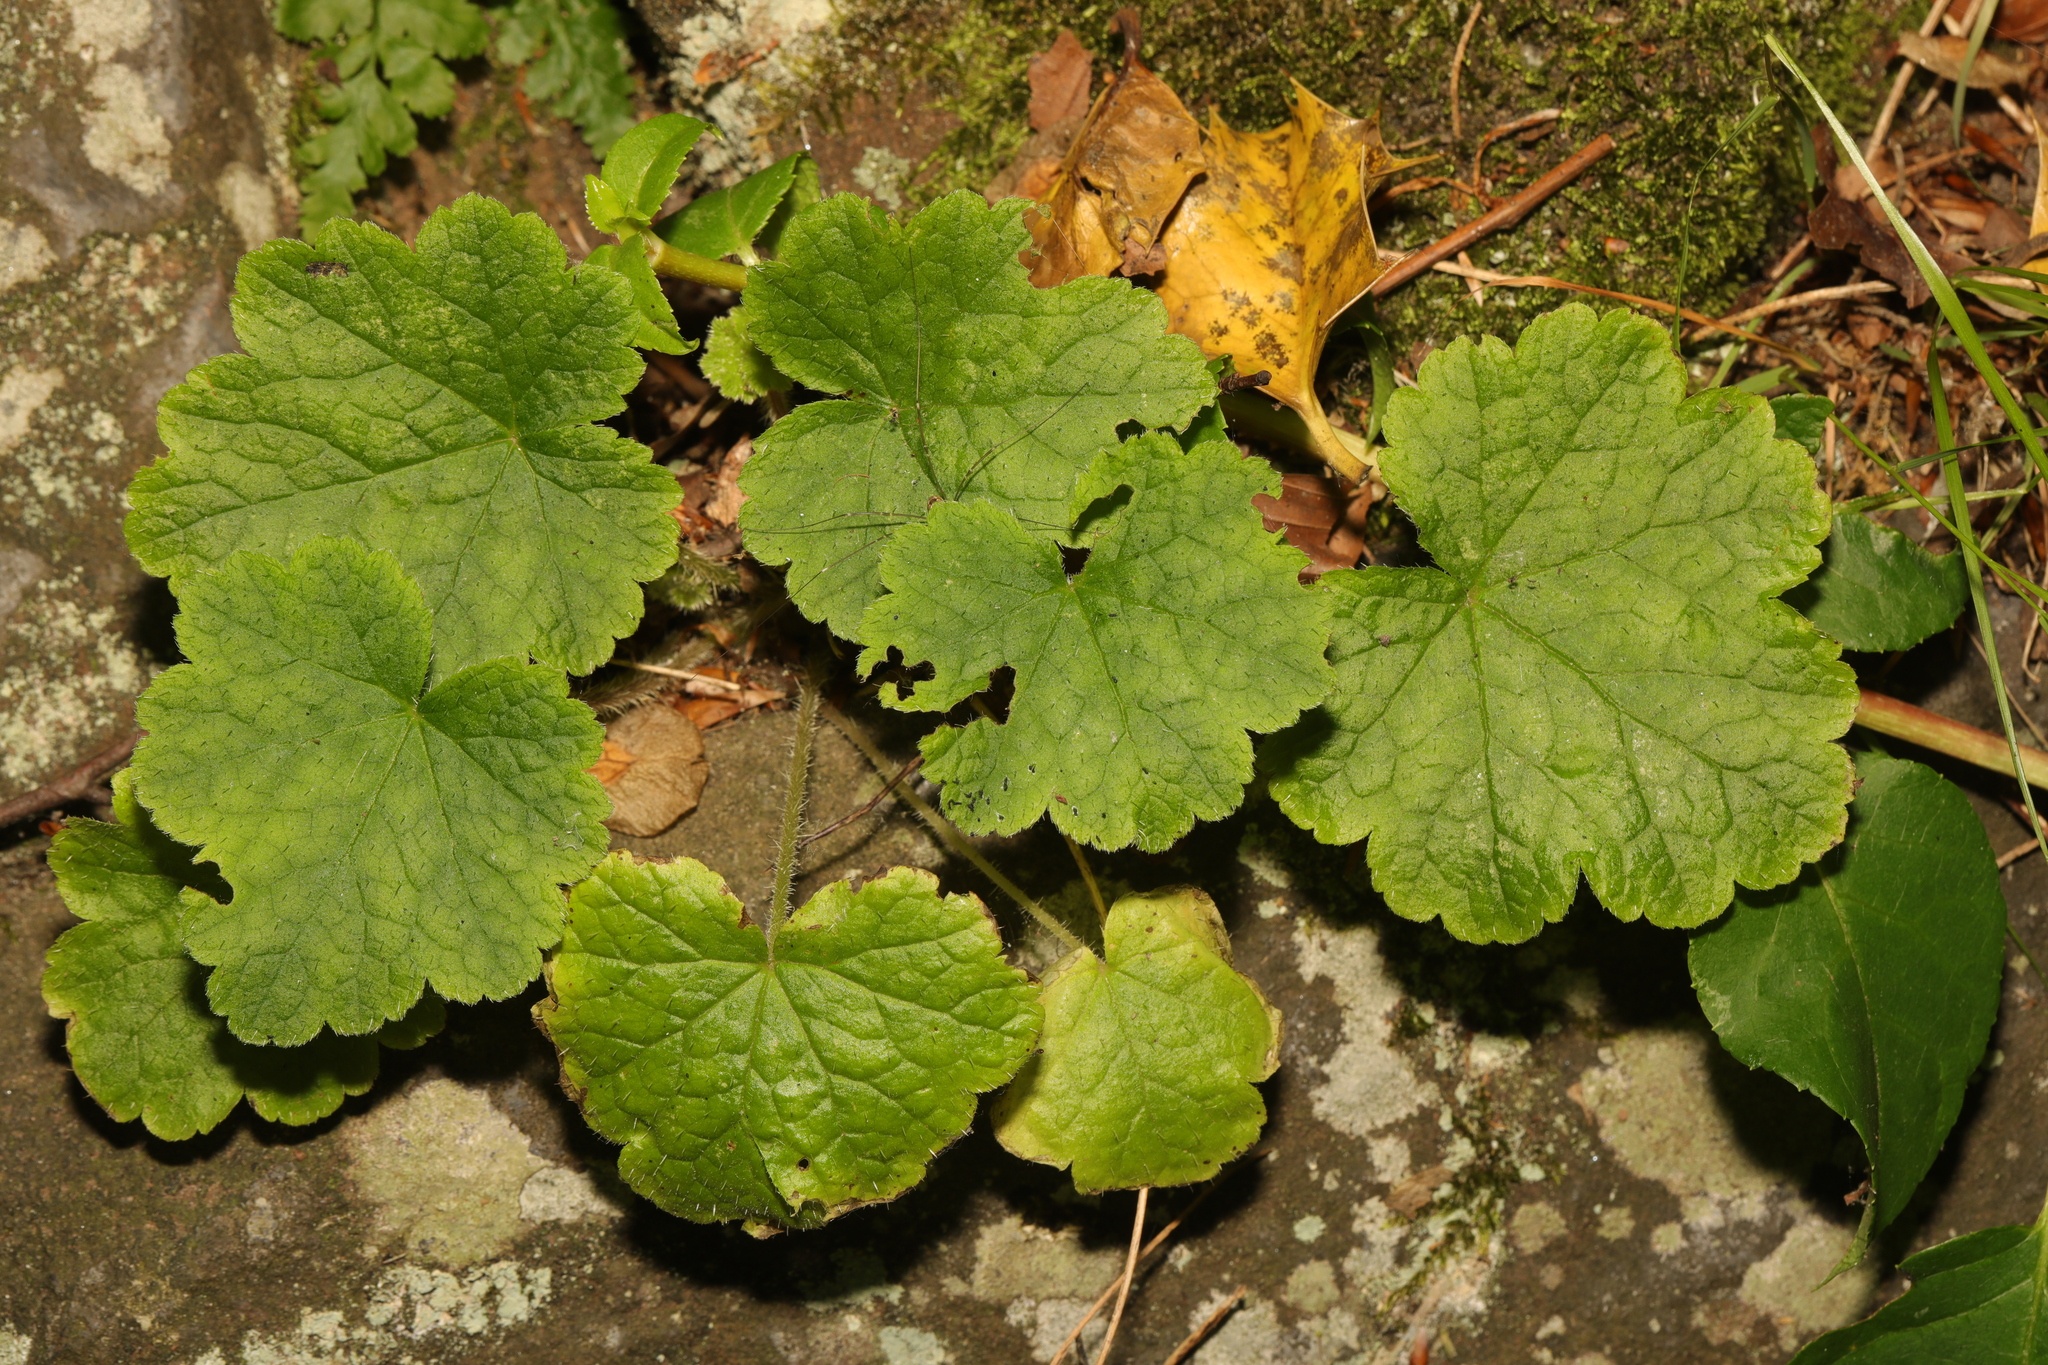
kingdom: Plantae
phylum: Tracheophyta
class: Magnoliopsida
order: Saxifragales
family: Saxifragaceae
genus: Tellima
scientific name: Tellima grandiflora
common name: Fringecups
